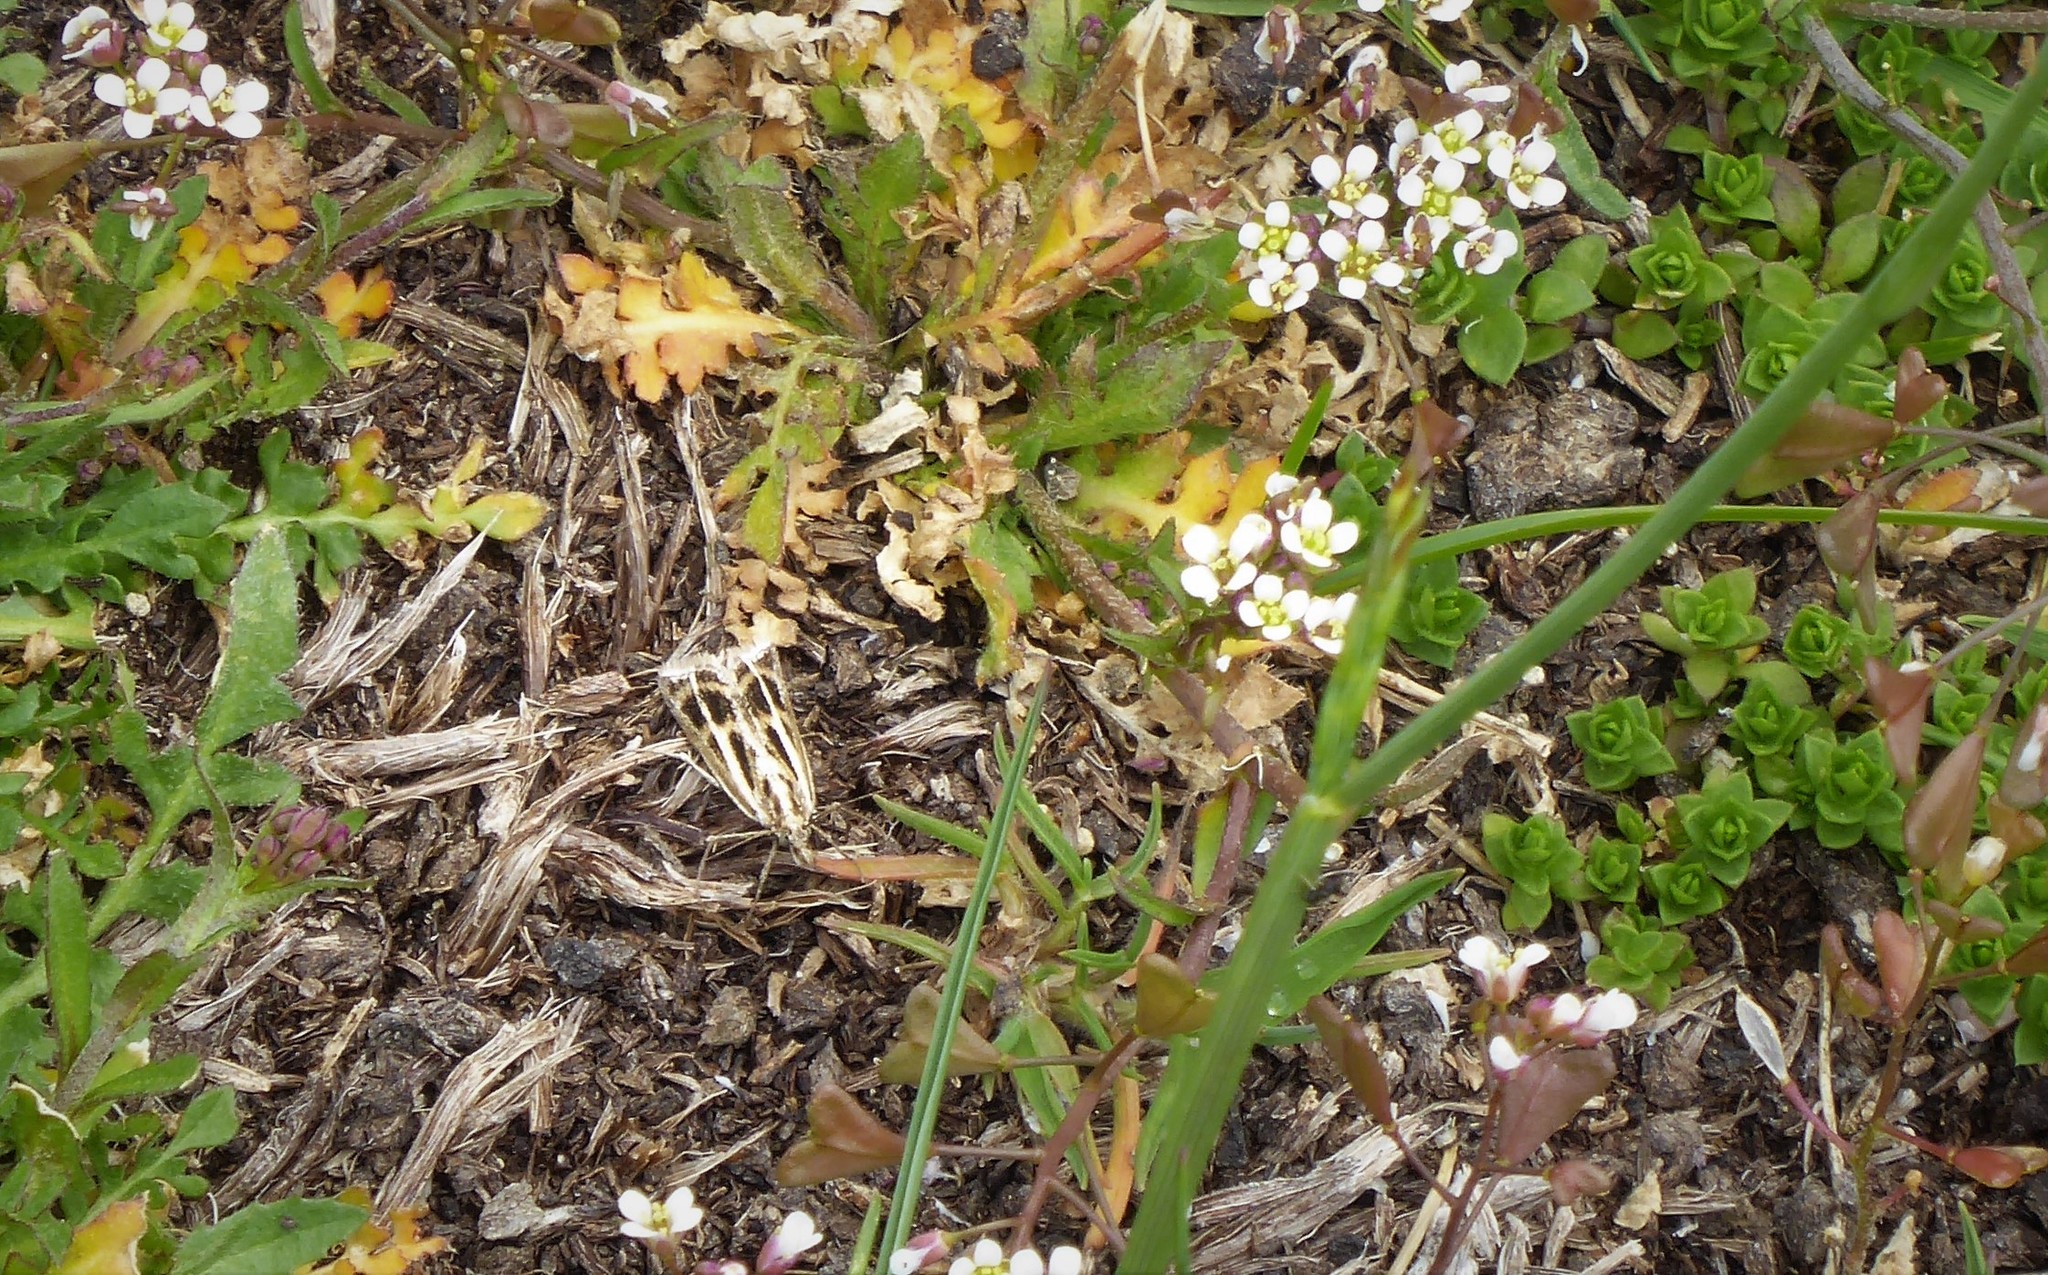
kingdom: Animalia
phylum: Arthropoda
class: Insecta
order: Lepidoptera
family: Crambidae
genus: Orocrambus
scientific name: Orocrambus corruptus
